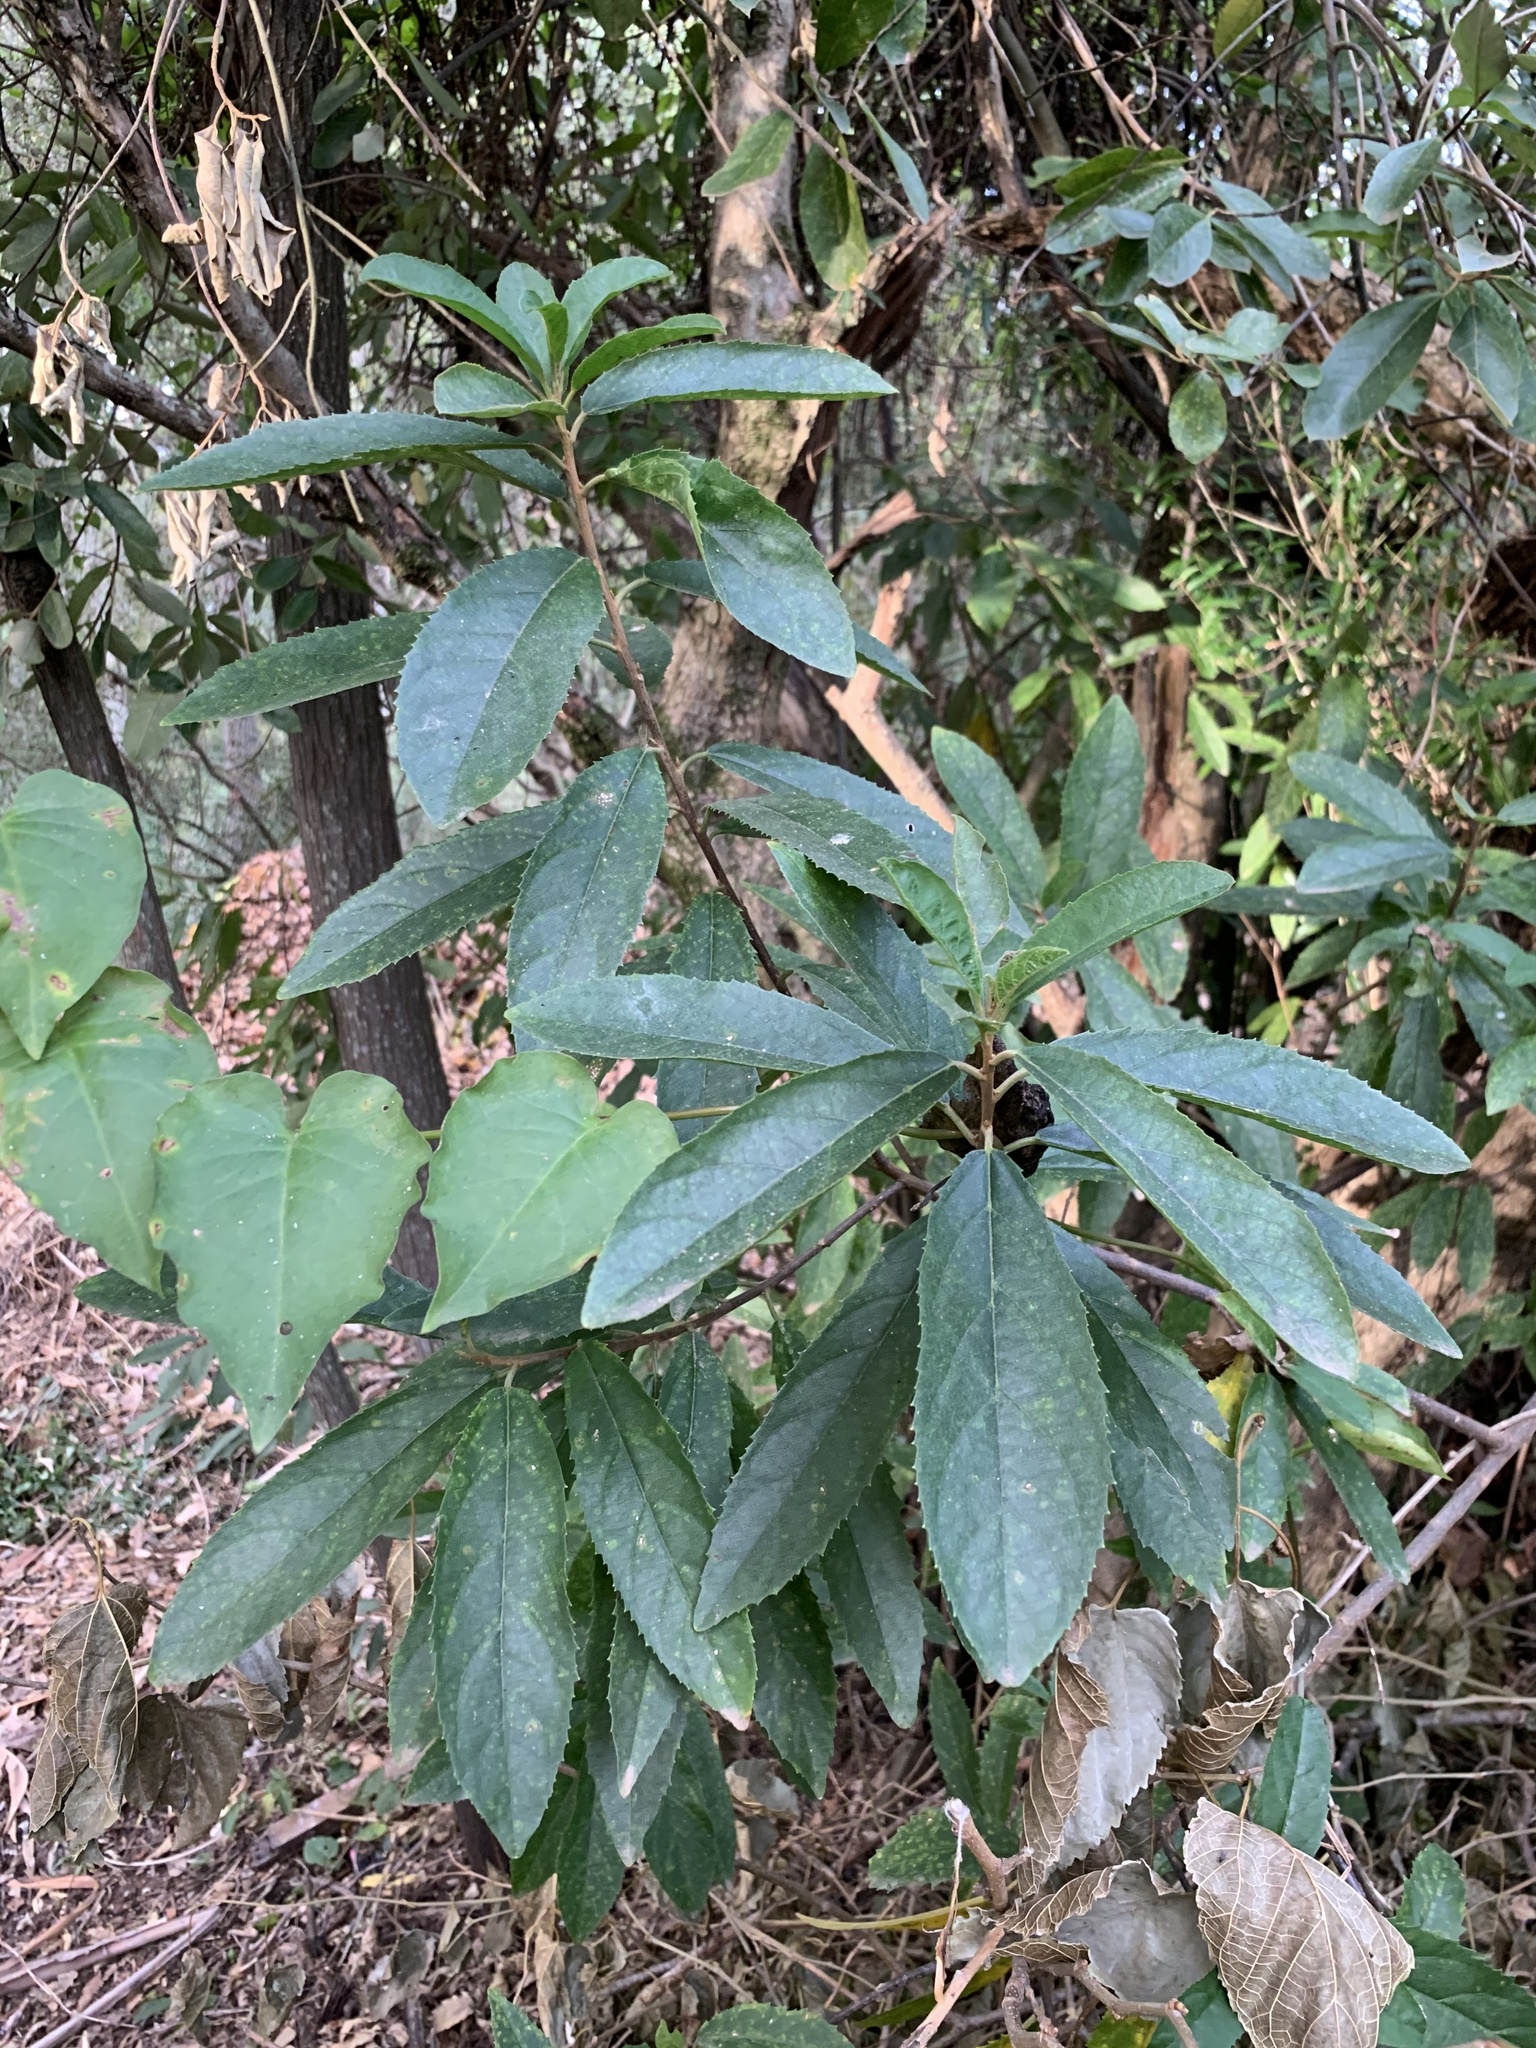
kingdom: Plantae
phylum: Tracheophyta
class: Magnoliopsida
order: Malpighiales
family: Achariaceae
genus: Kiggelaria
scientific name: Kiggelaria africana
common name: Wild peach
